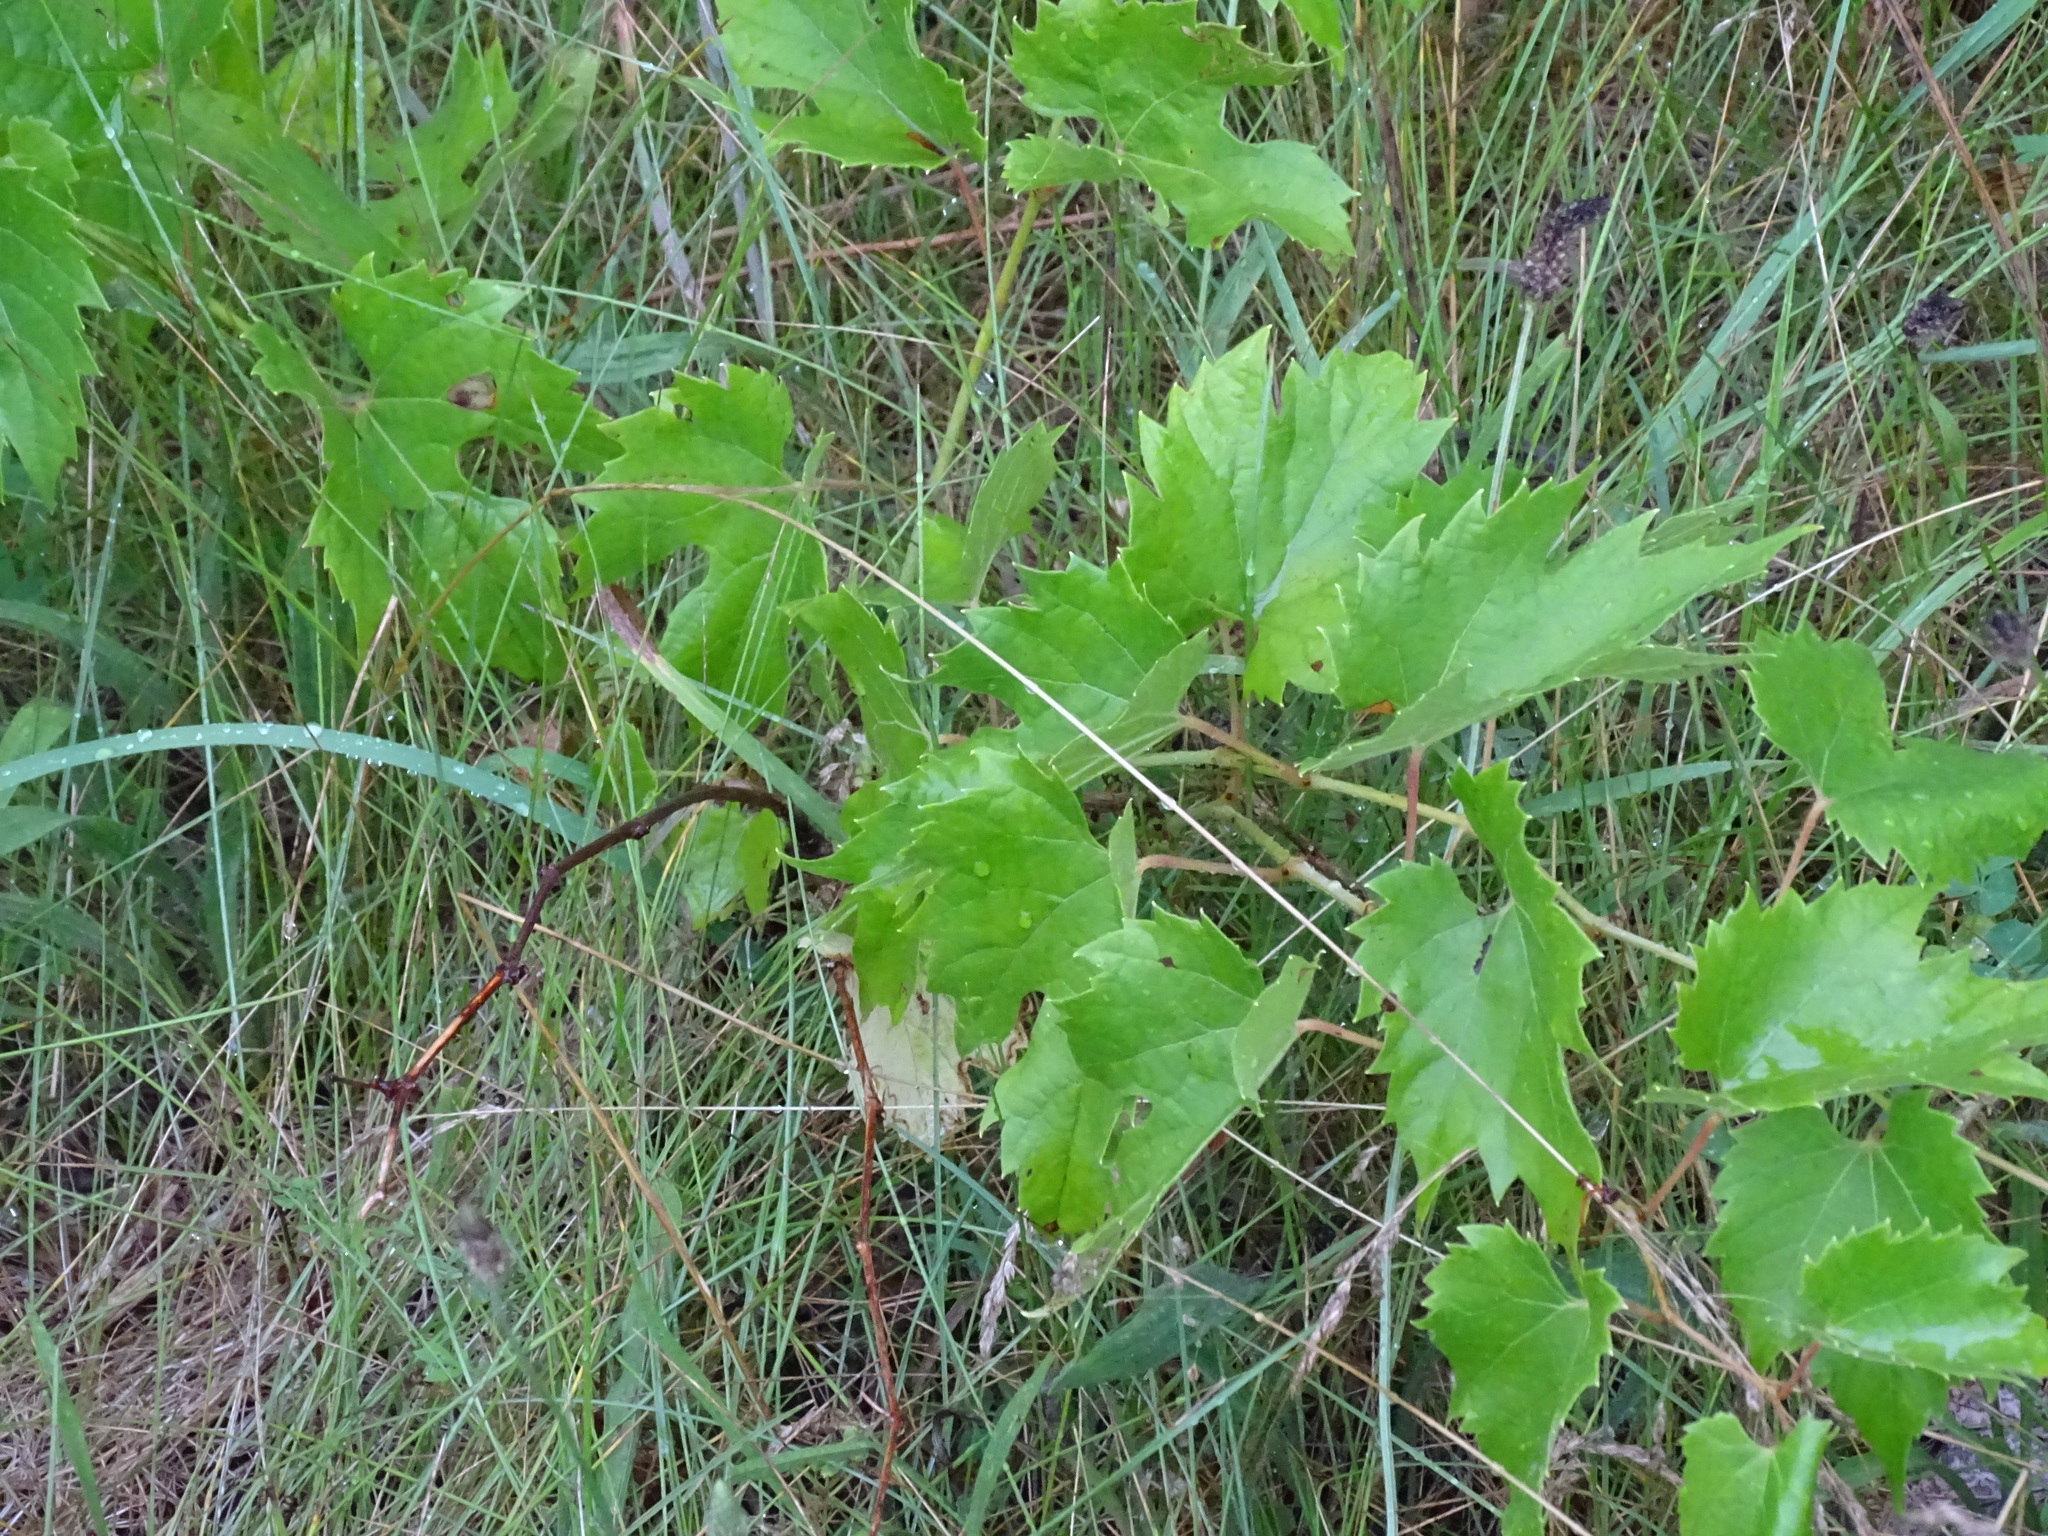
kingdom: Plantae
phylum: Tracheophyta
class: Magnoliopsida
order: Vitales
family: Vitaceae
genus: Vitis
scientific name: Vitis riparia
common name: Frost grape
